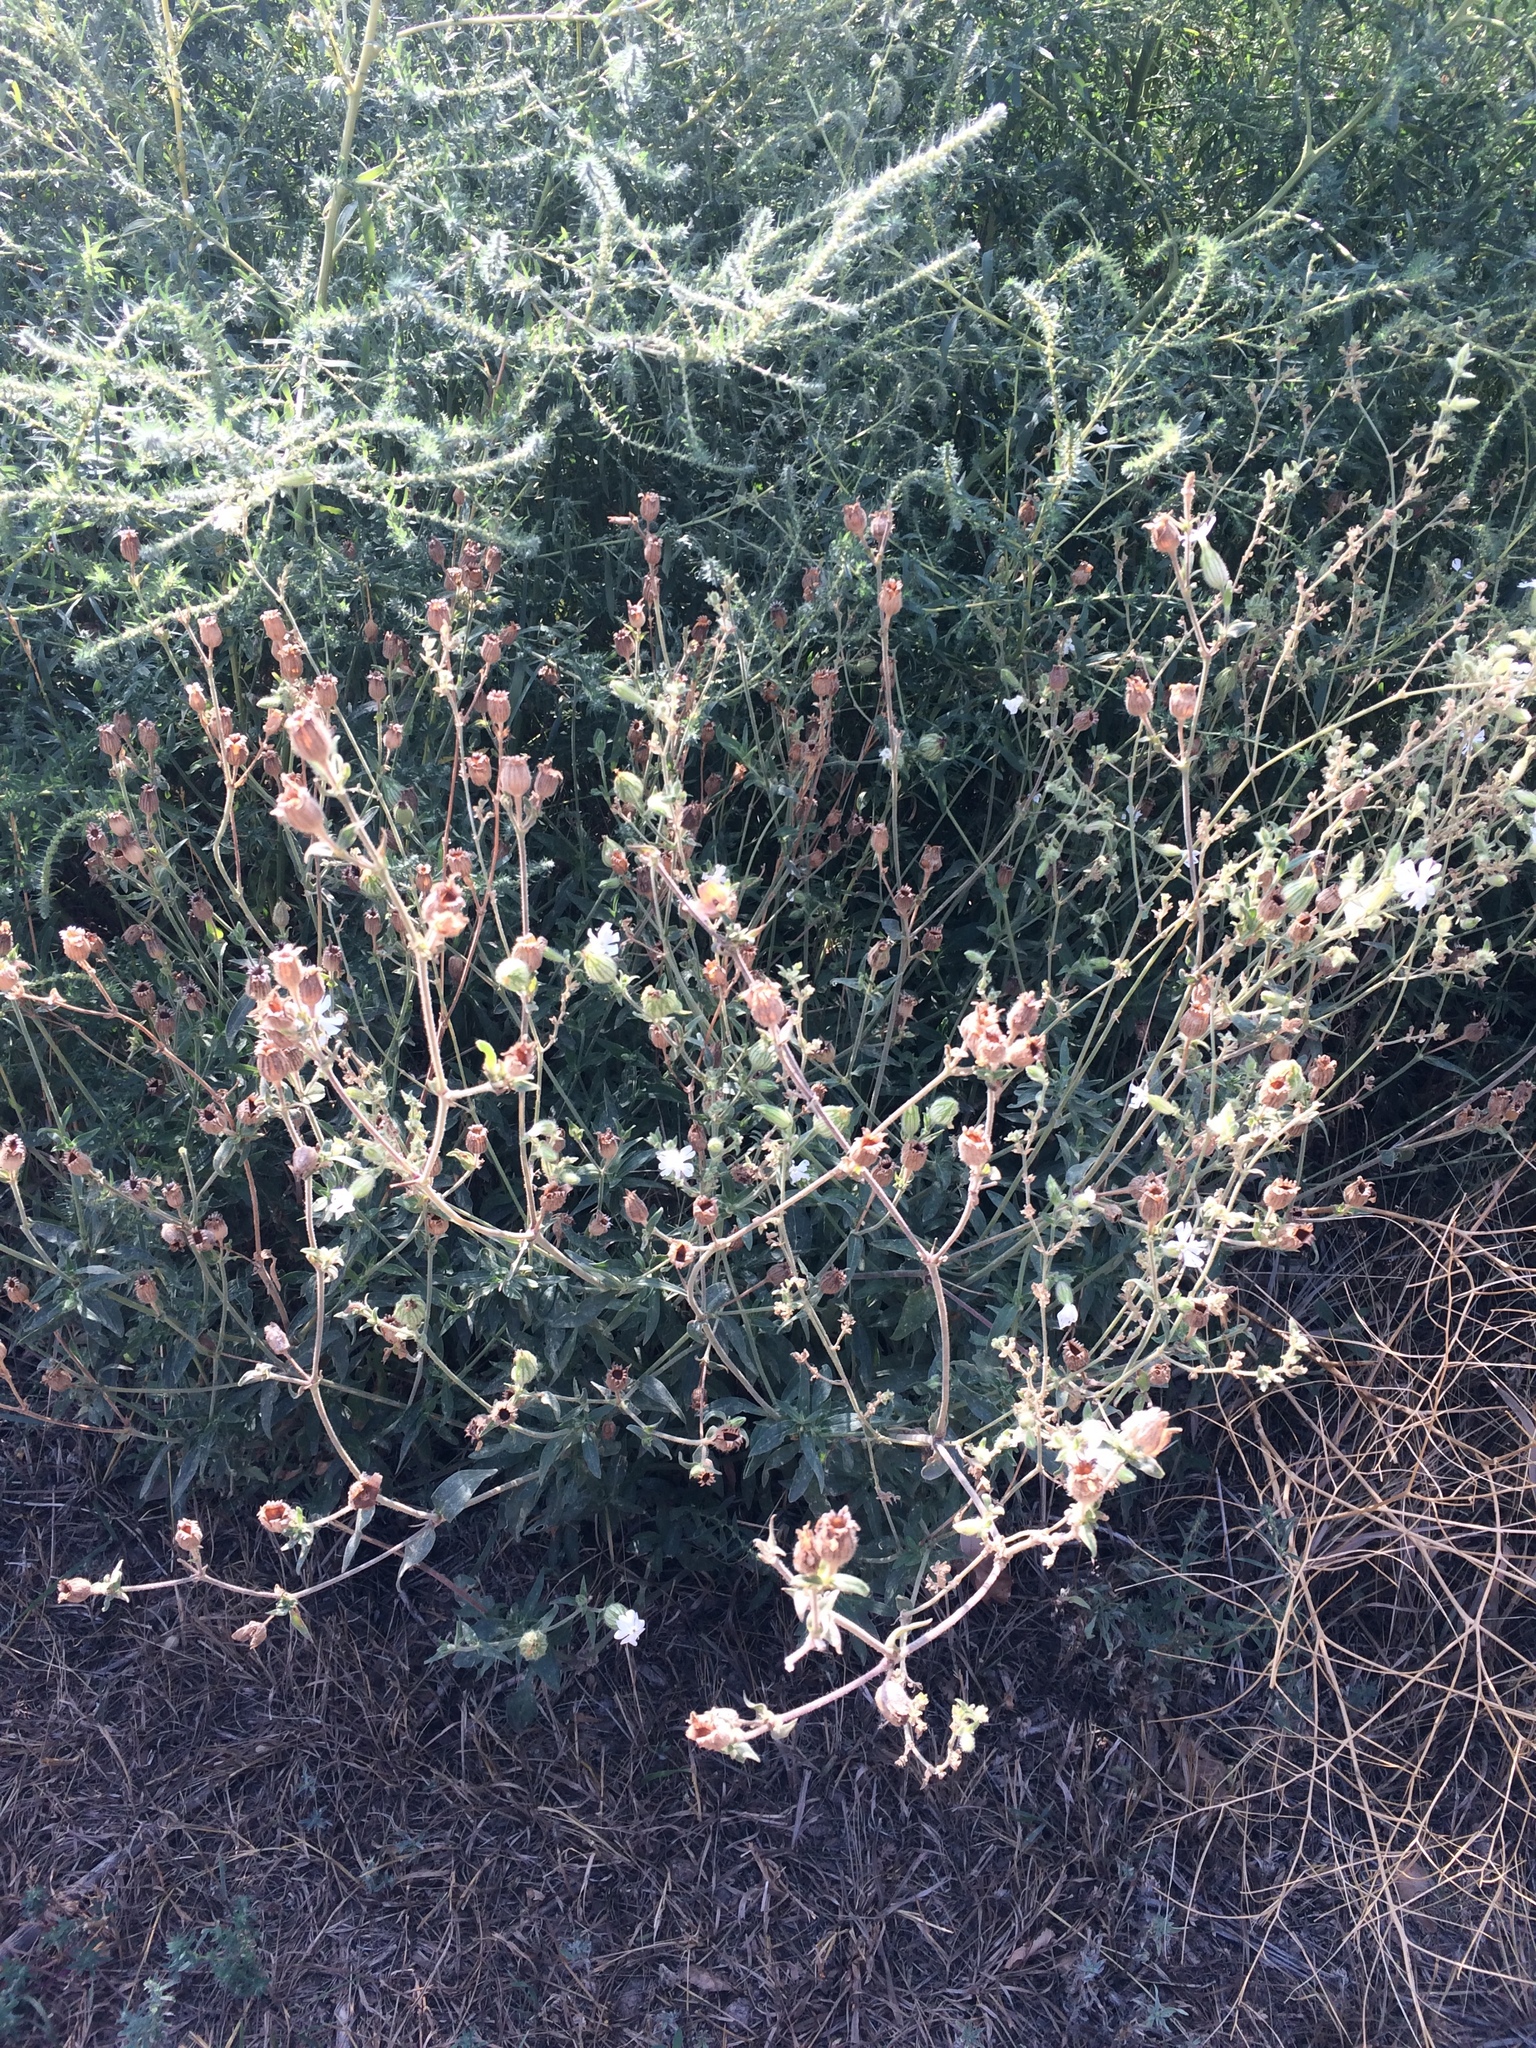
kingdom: Plantae
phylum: Tracheophyta
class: Magnoliopsida
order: Caryophyllales
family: Caryophyllaceae
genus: Silene
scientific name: Silene latifolia
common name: White campion
